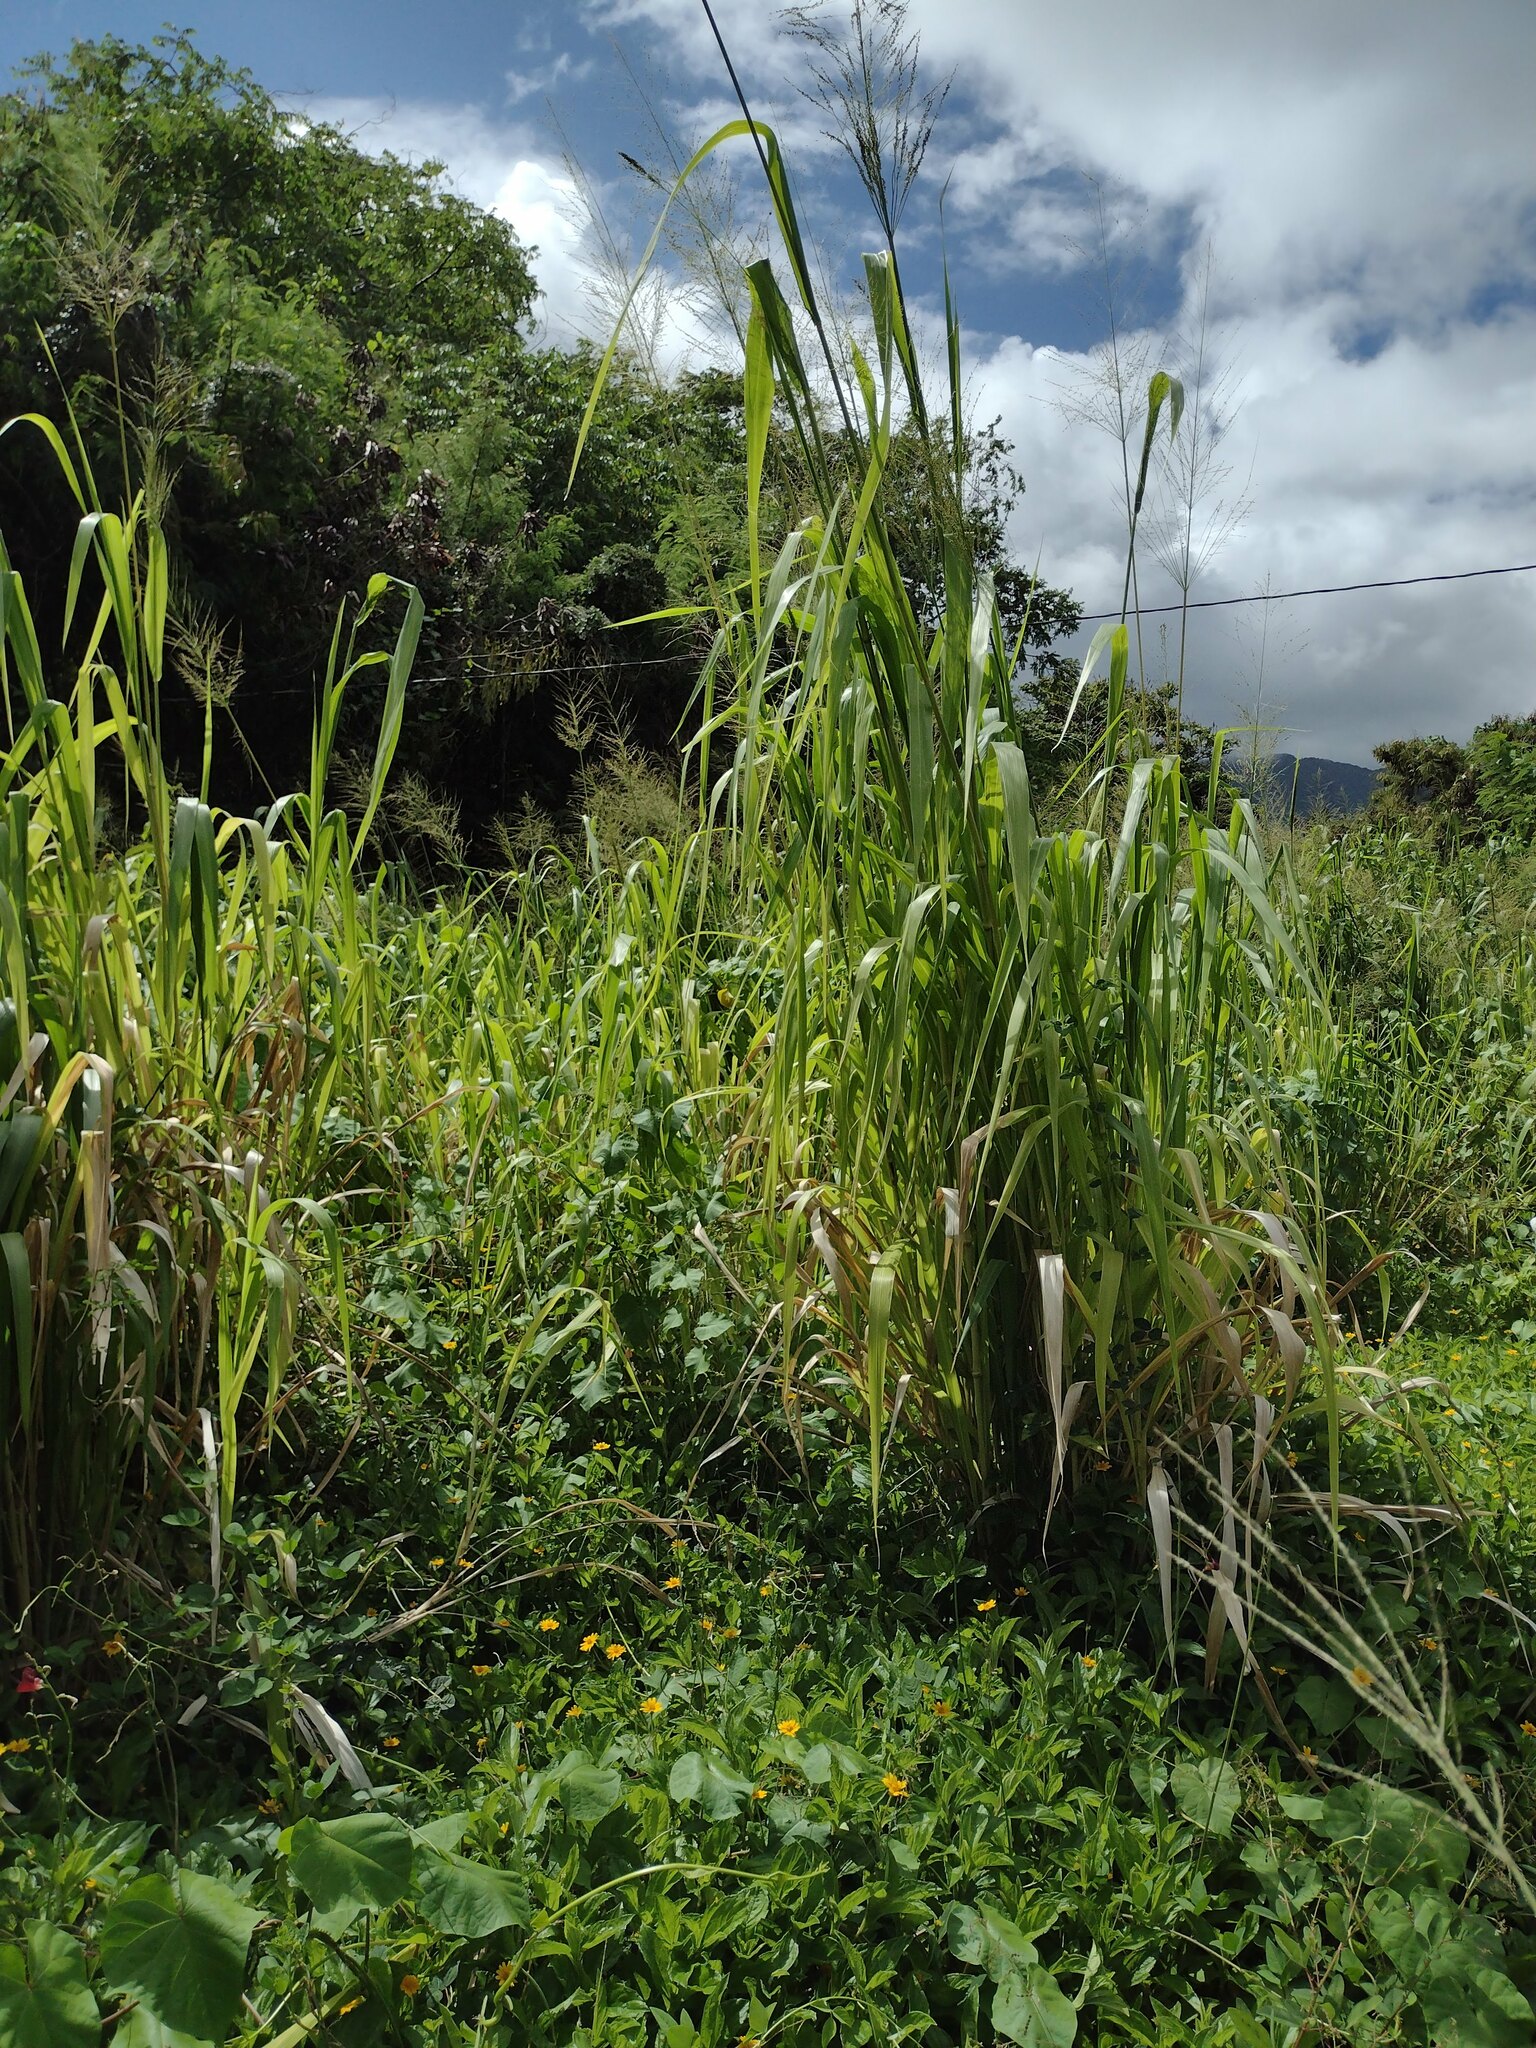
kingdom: Plantae
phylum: Tracheophyta
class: Liliopsida
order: Poales
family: Poaceae
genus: Megathyrsus
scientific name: Megathyrsus maximus
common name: Guineagrass
